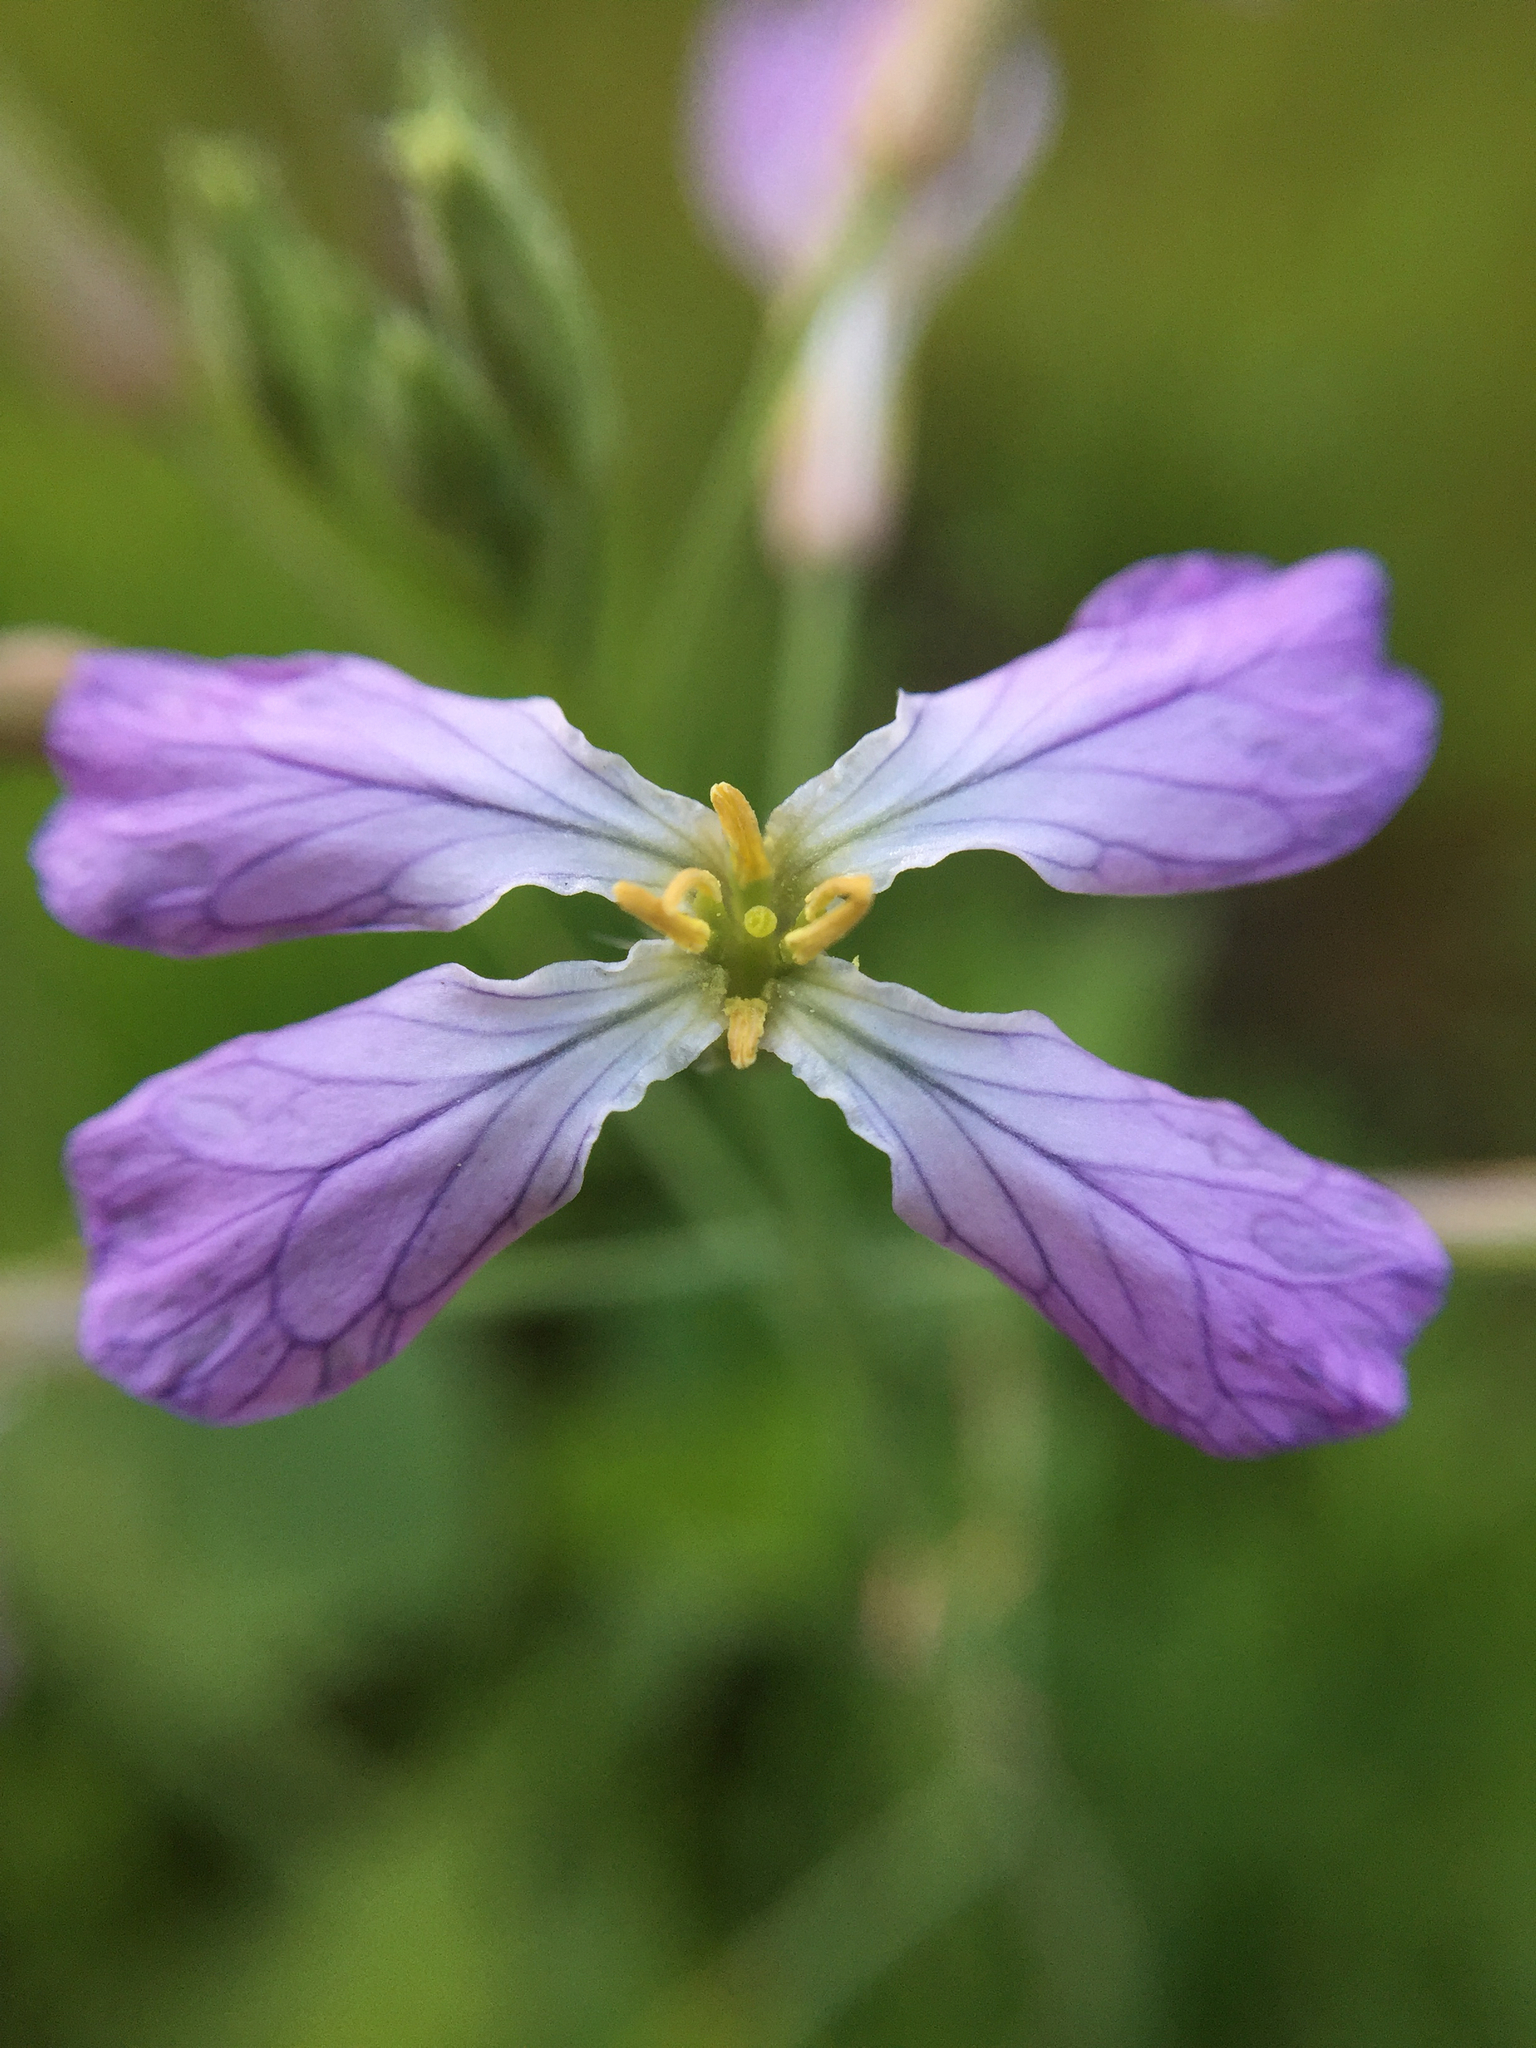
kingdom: Plantae
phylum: Tracheophyta
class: Magnoliopsida
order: Brassicales
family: Brassicaceae
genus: Raphanus
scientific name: Raphanus sativus
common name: Cultivated radish
